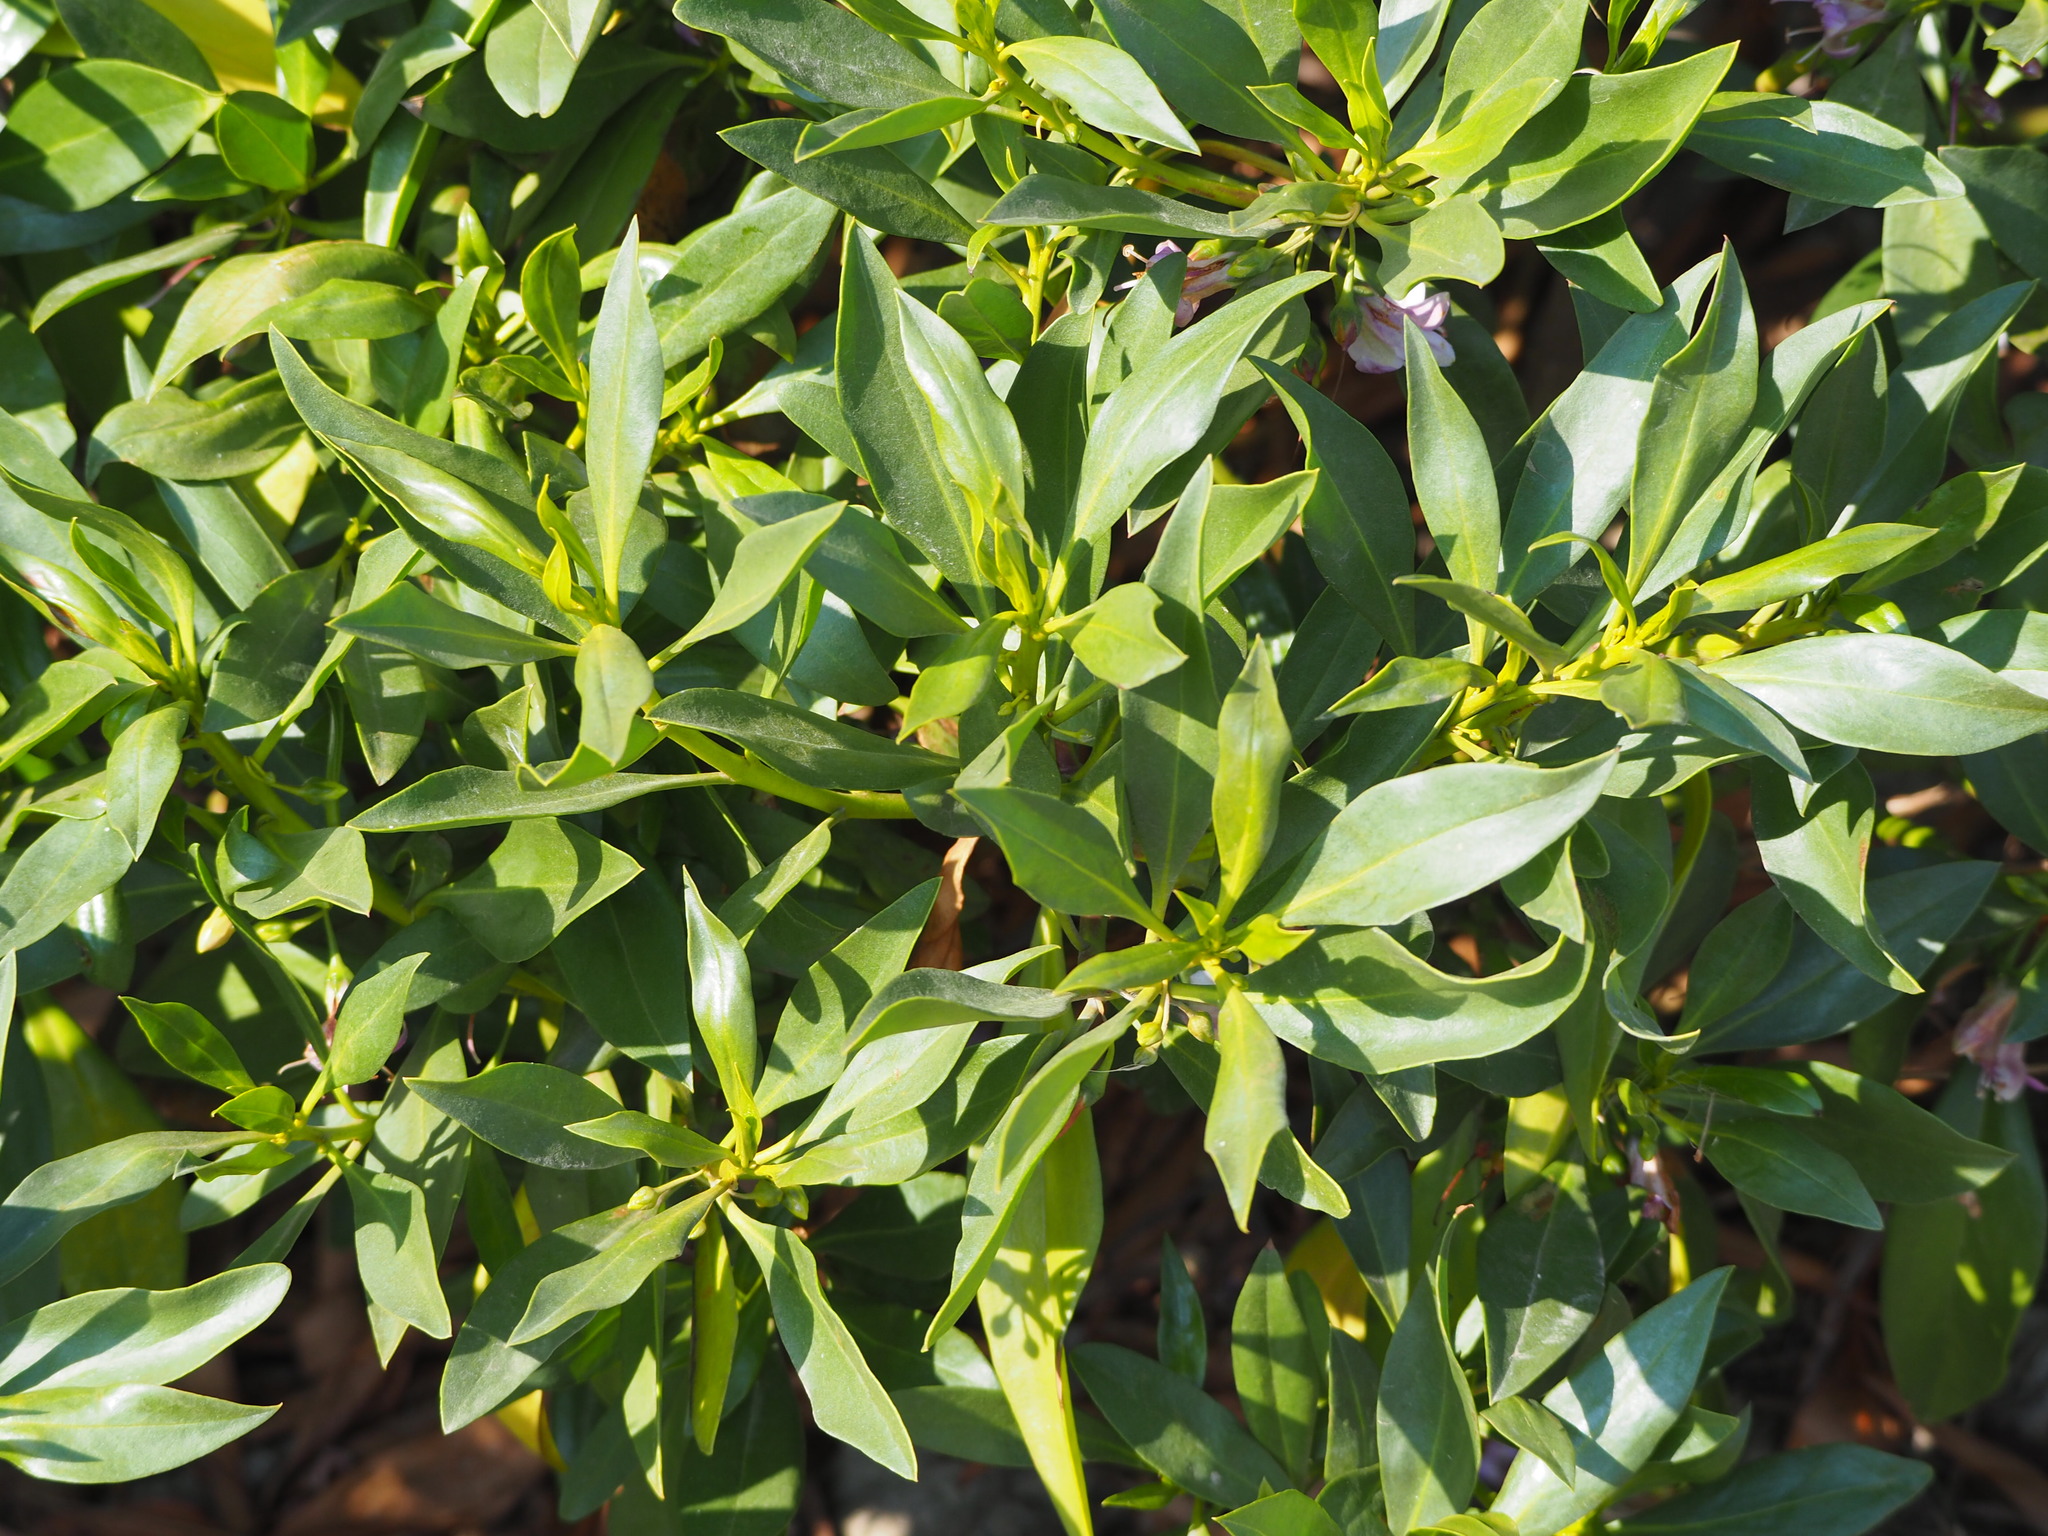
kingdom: Plantae
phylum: Tracheophyta
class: Magnoliopsida
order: Lamiales
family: Scrophulariaceae
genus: Myoporum
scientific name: Myoporum bontioides
